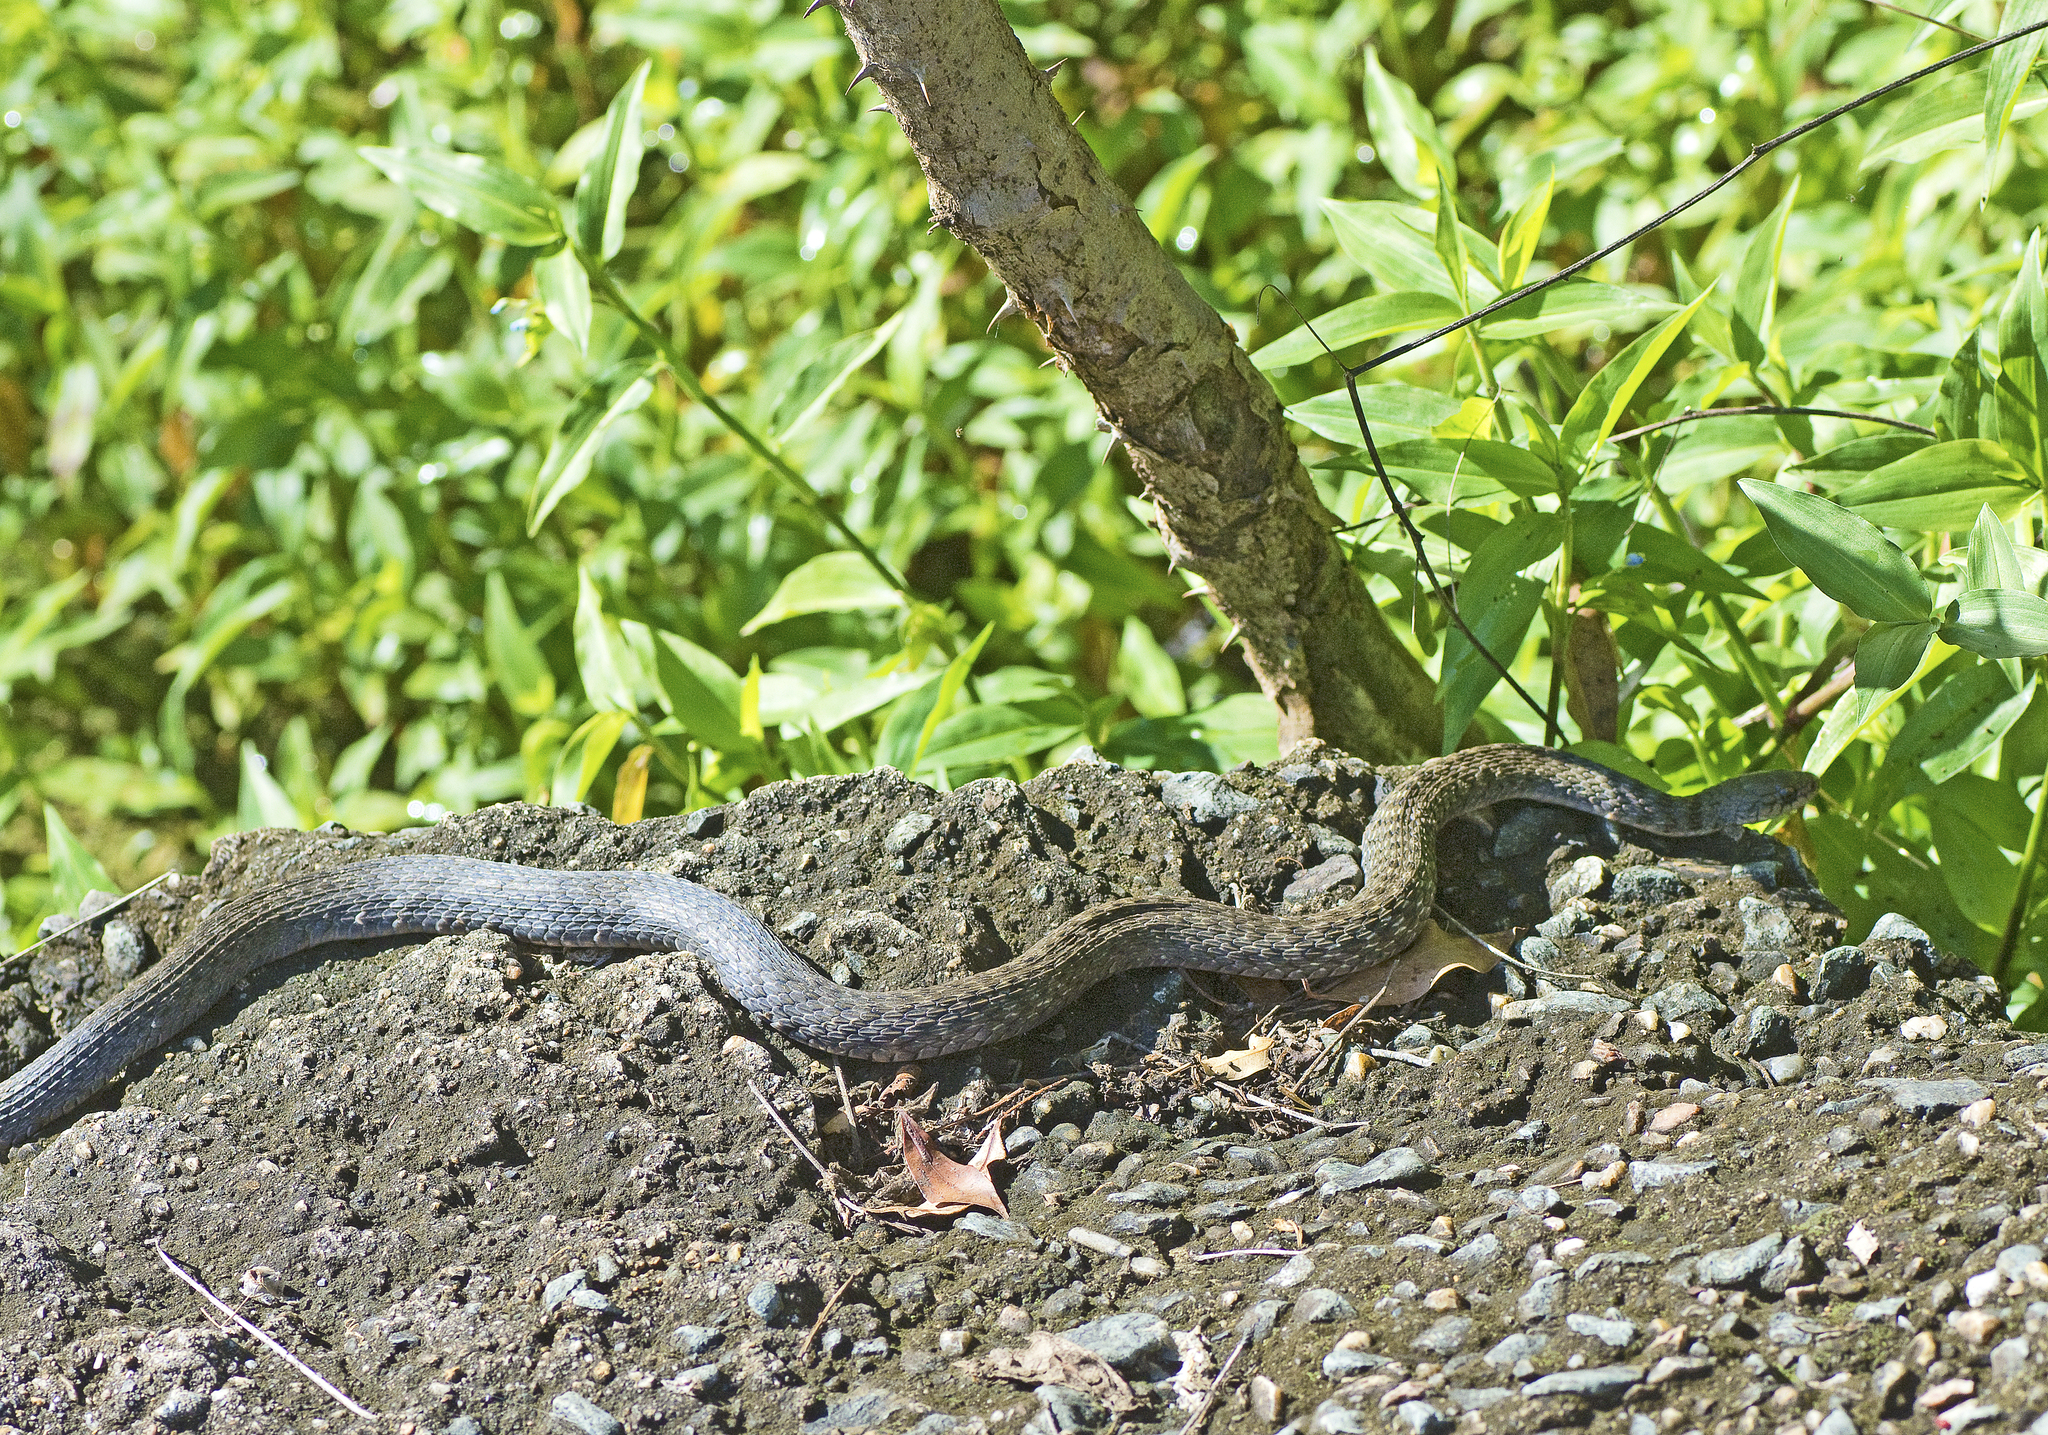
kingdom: Animalia
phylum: Chordata
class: Squamata
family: Colubridae
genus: Tropidonophis
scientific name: Tropidonophis mairii
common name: Common keelback
